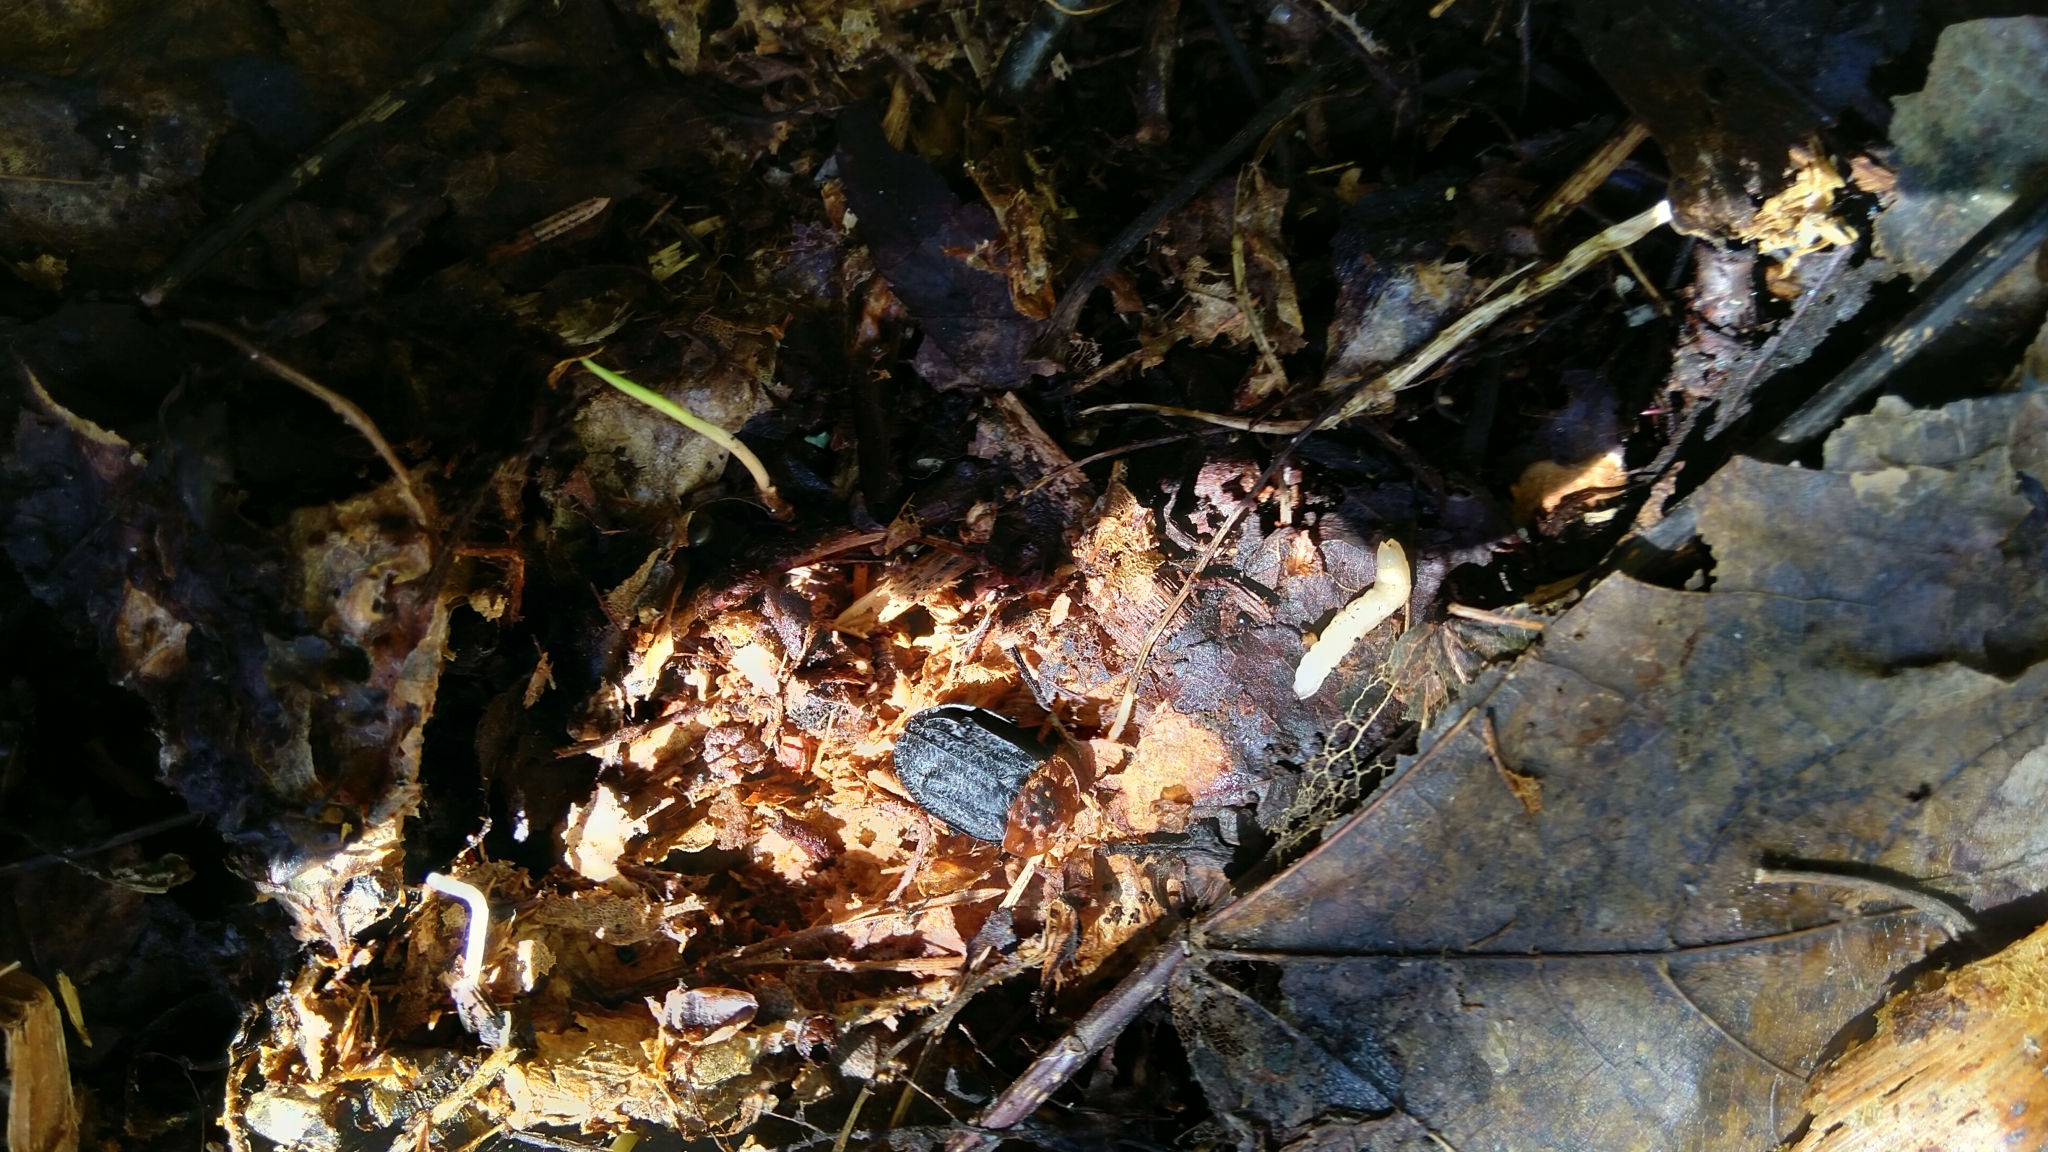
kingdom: Animalia
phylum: Arthropoda
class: Insecta
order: Coleoptera
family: Staphylinidae
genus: Oiceoptoma
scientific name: Oiceoptoma thoracicum
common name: Red-breasted carrion beetle
